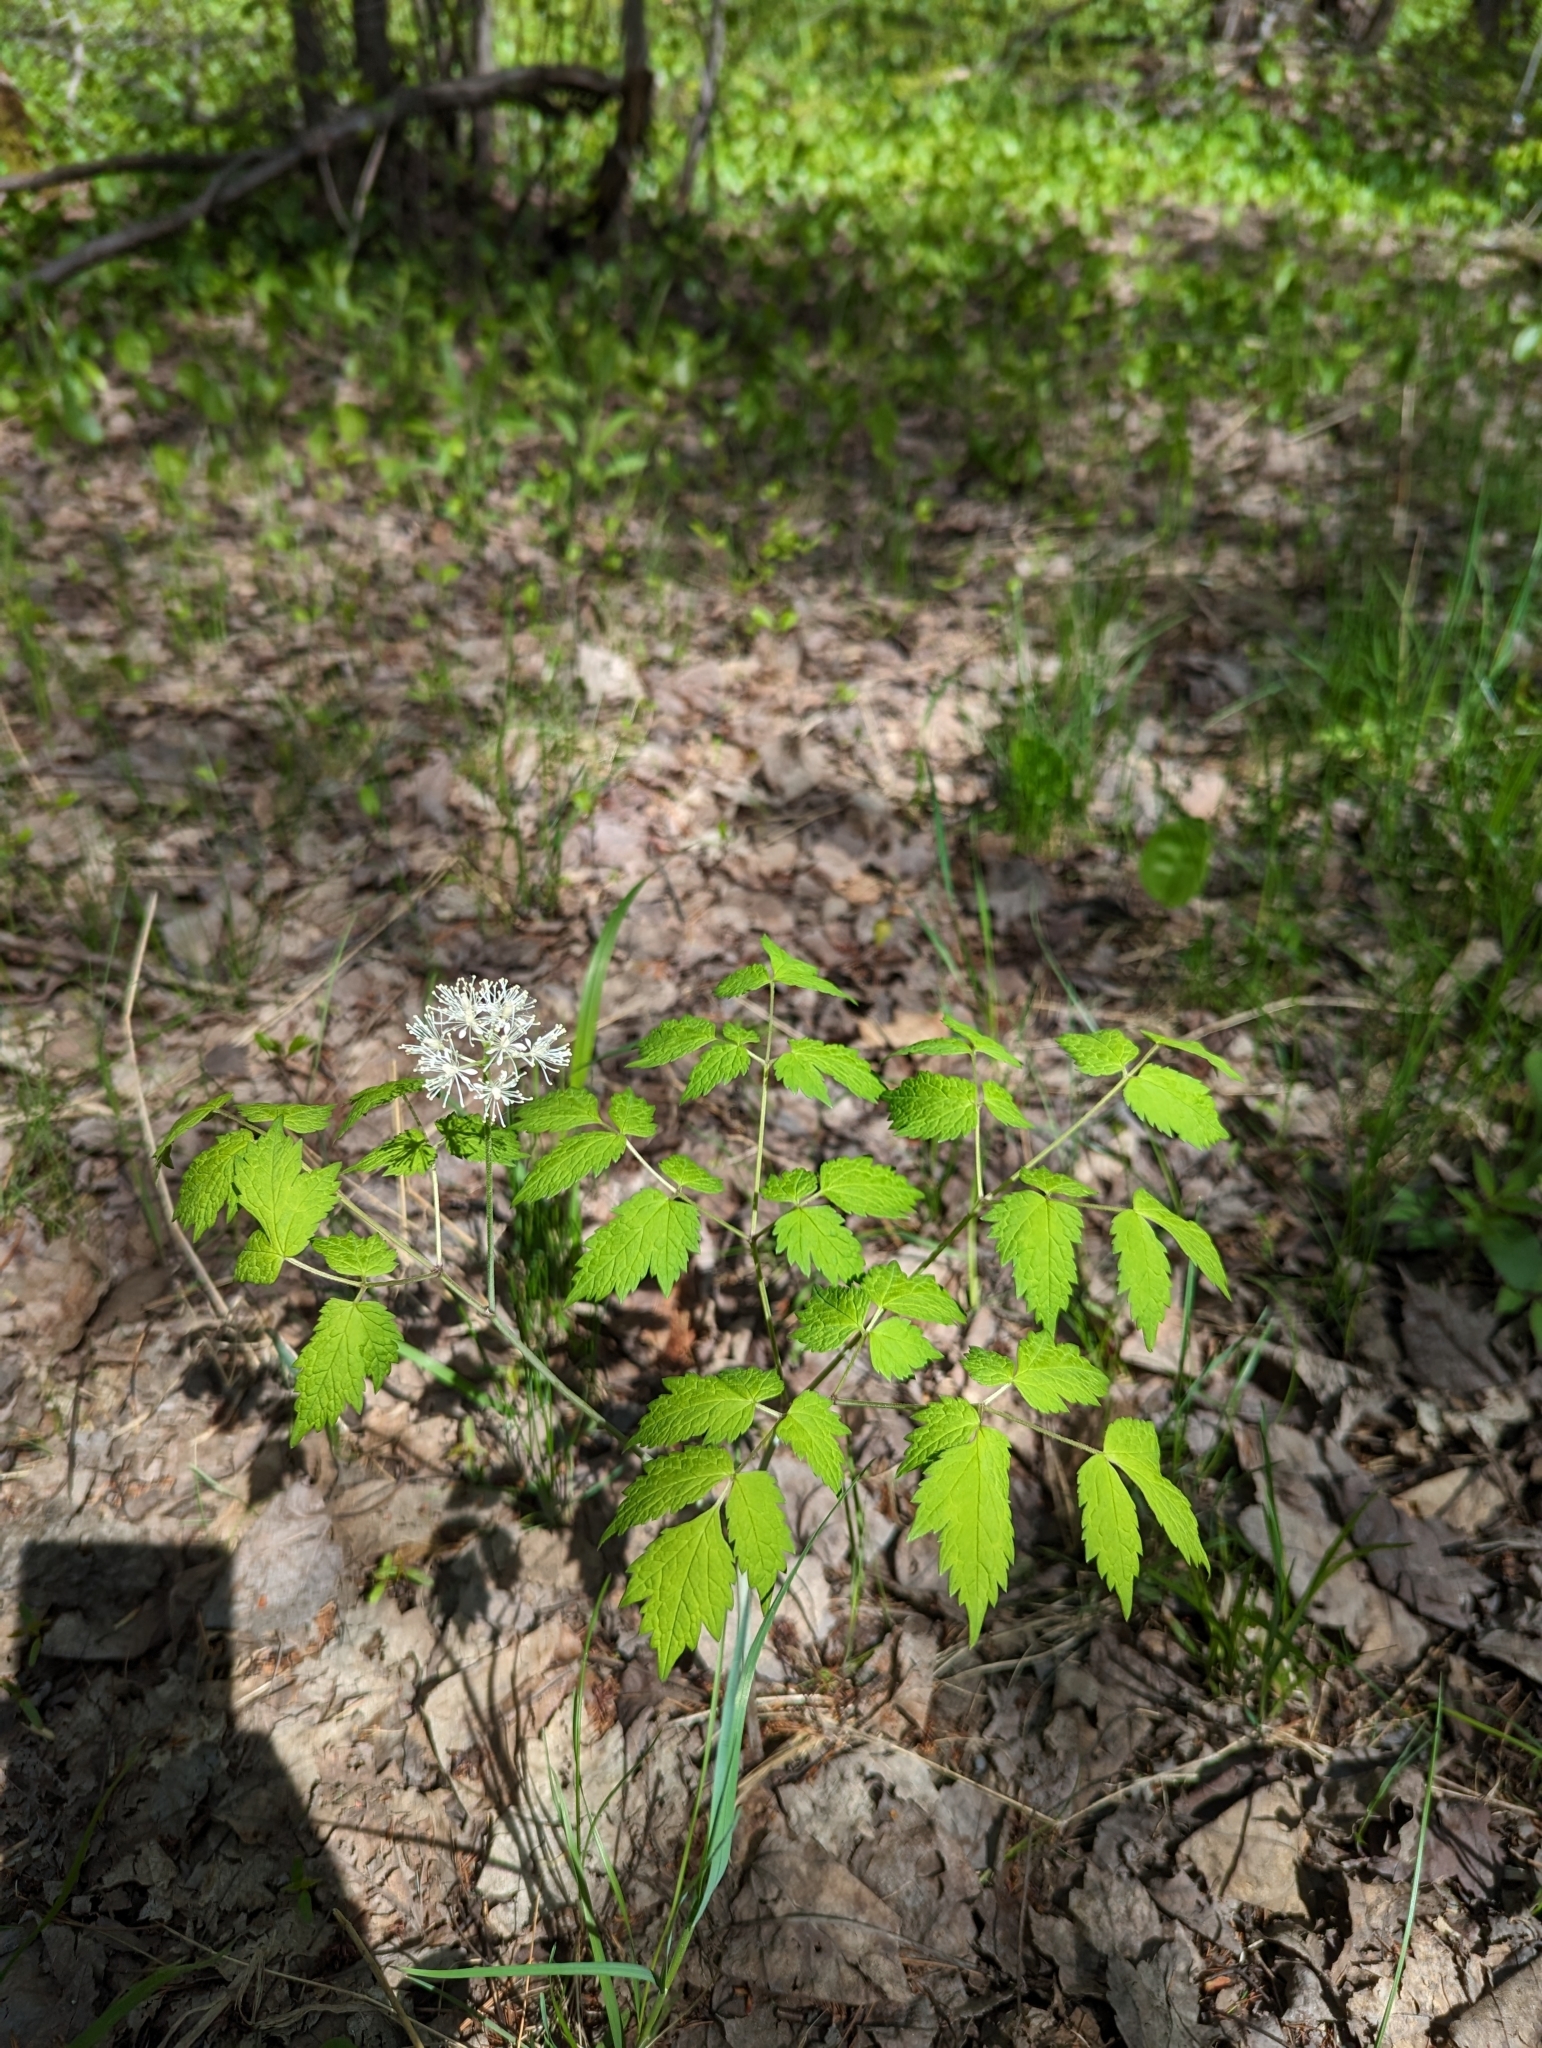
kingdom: Plantae
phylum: Tracheophyta
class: Magnoliopsida
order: Ranunculales
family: Ranunculaceae
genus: Actaea
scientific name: Actaea rubra
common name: Red baneberry
